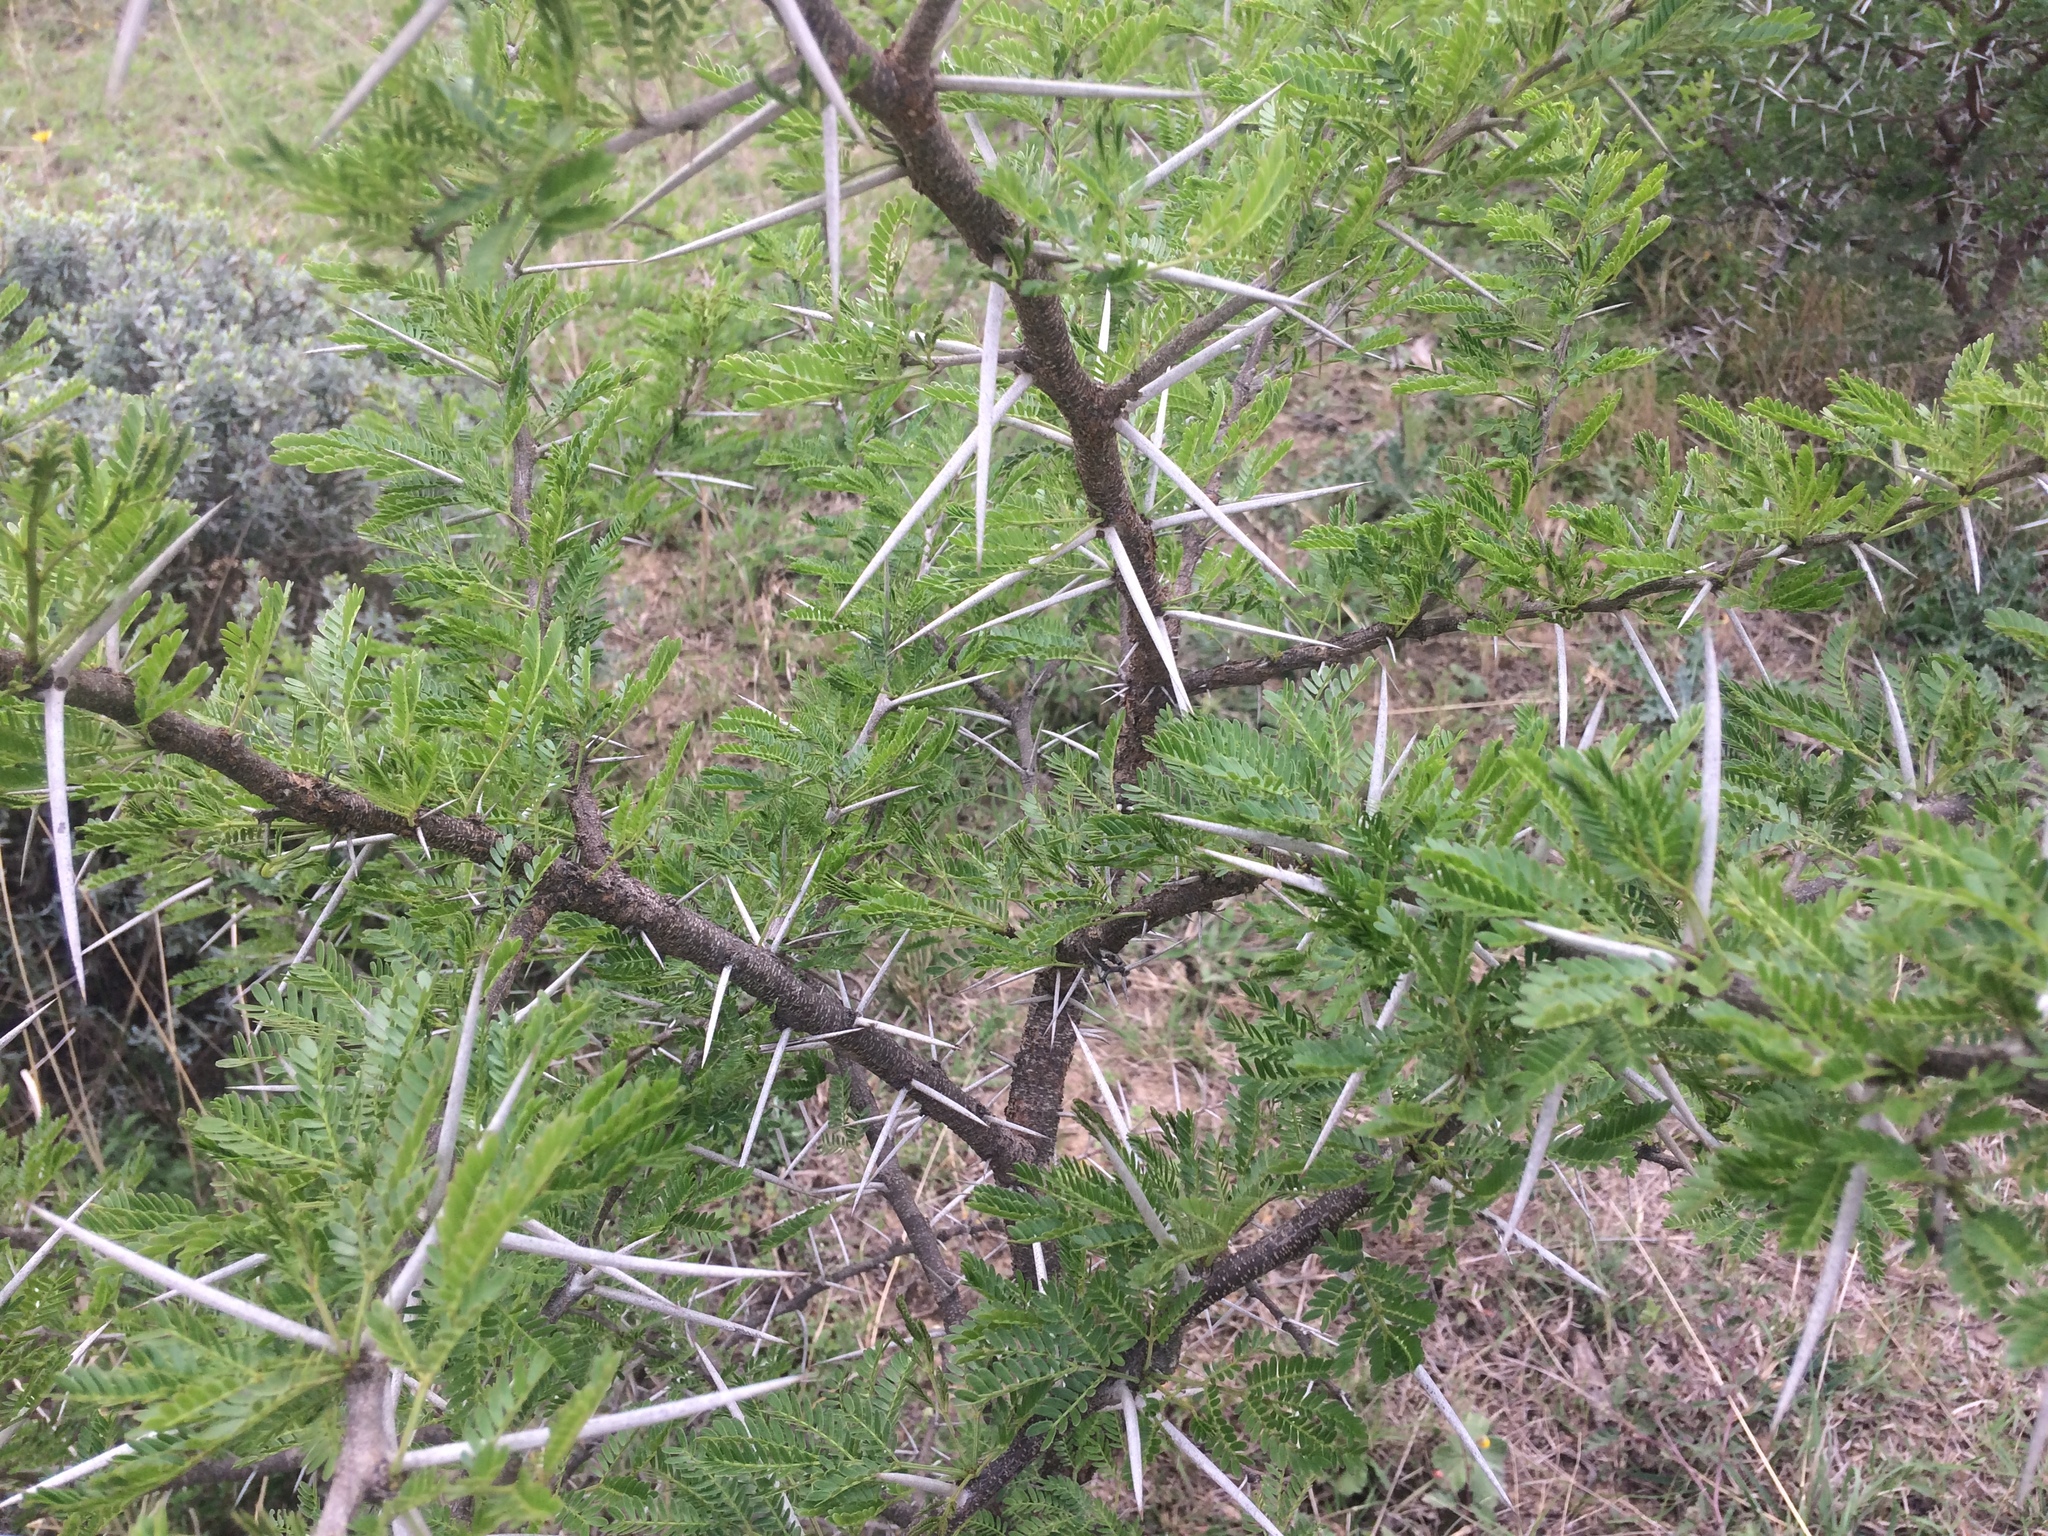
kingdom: Plantae
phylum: Tracheophyta
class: Magnoliopsida
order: Fabales
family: Fabaceae
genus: Vachellia
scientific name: Vachellia karroo
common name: Sweet thorn
